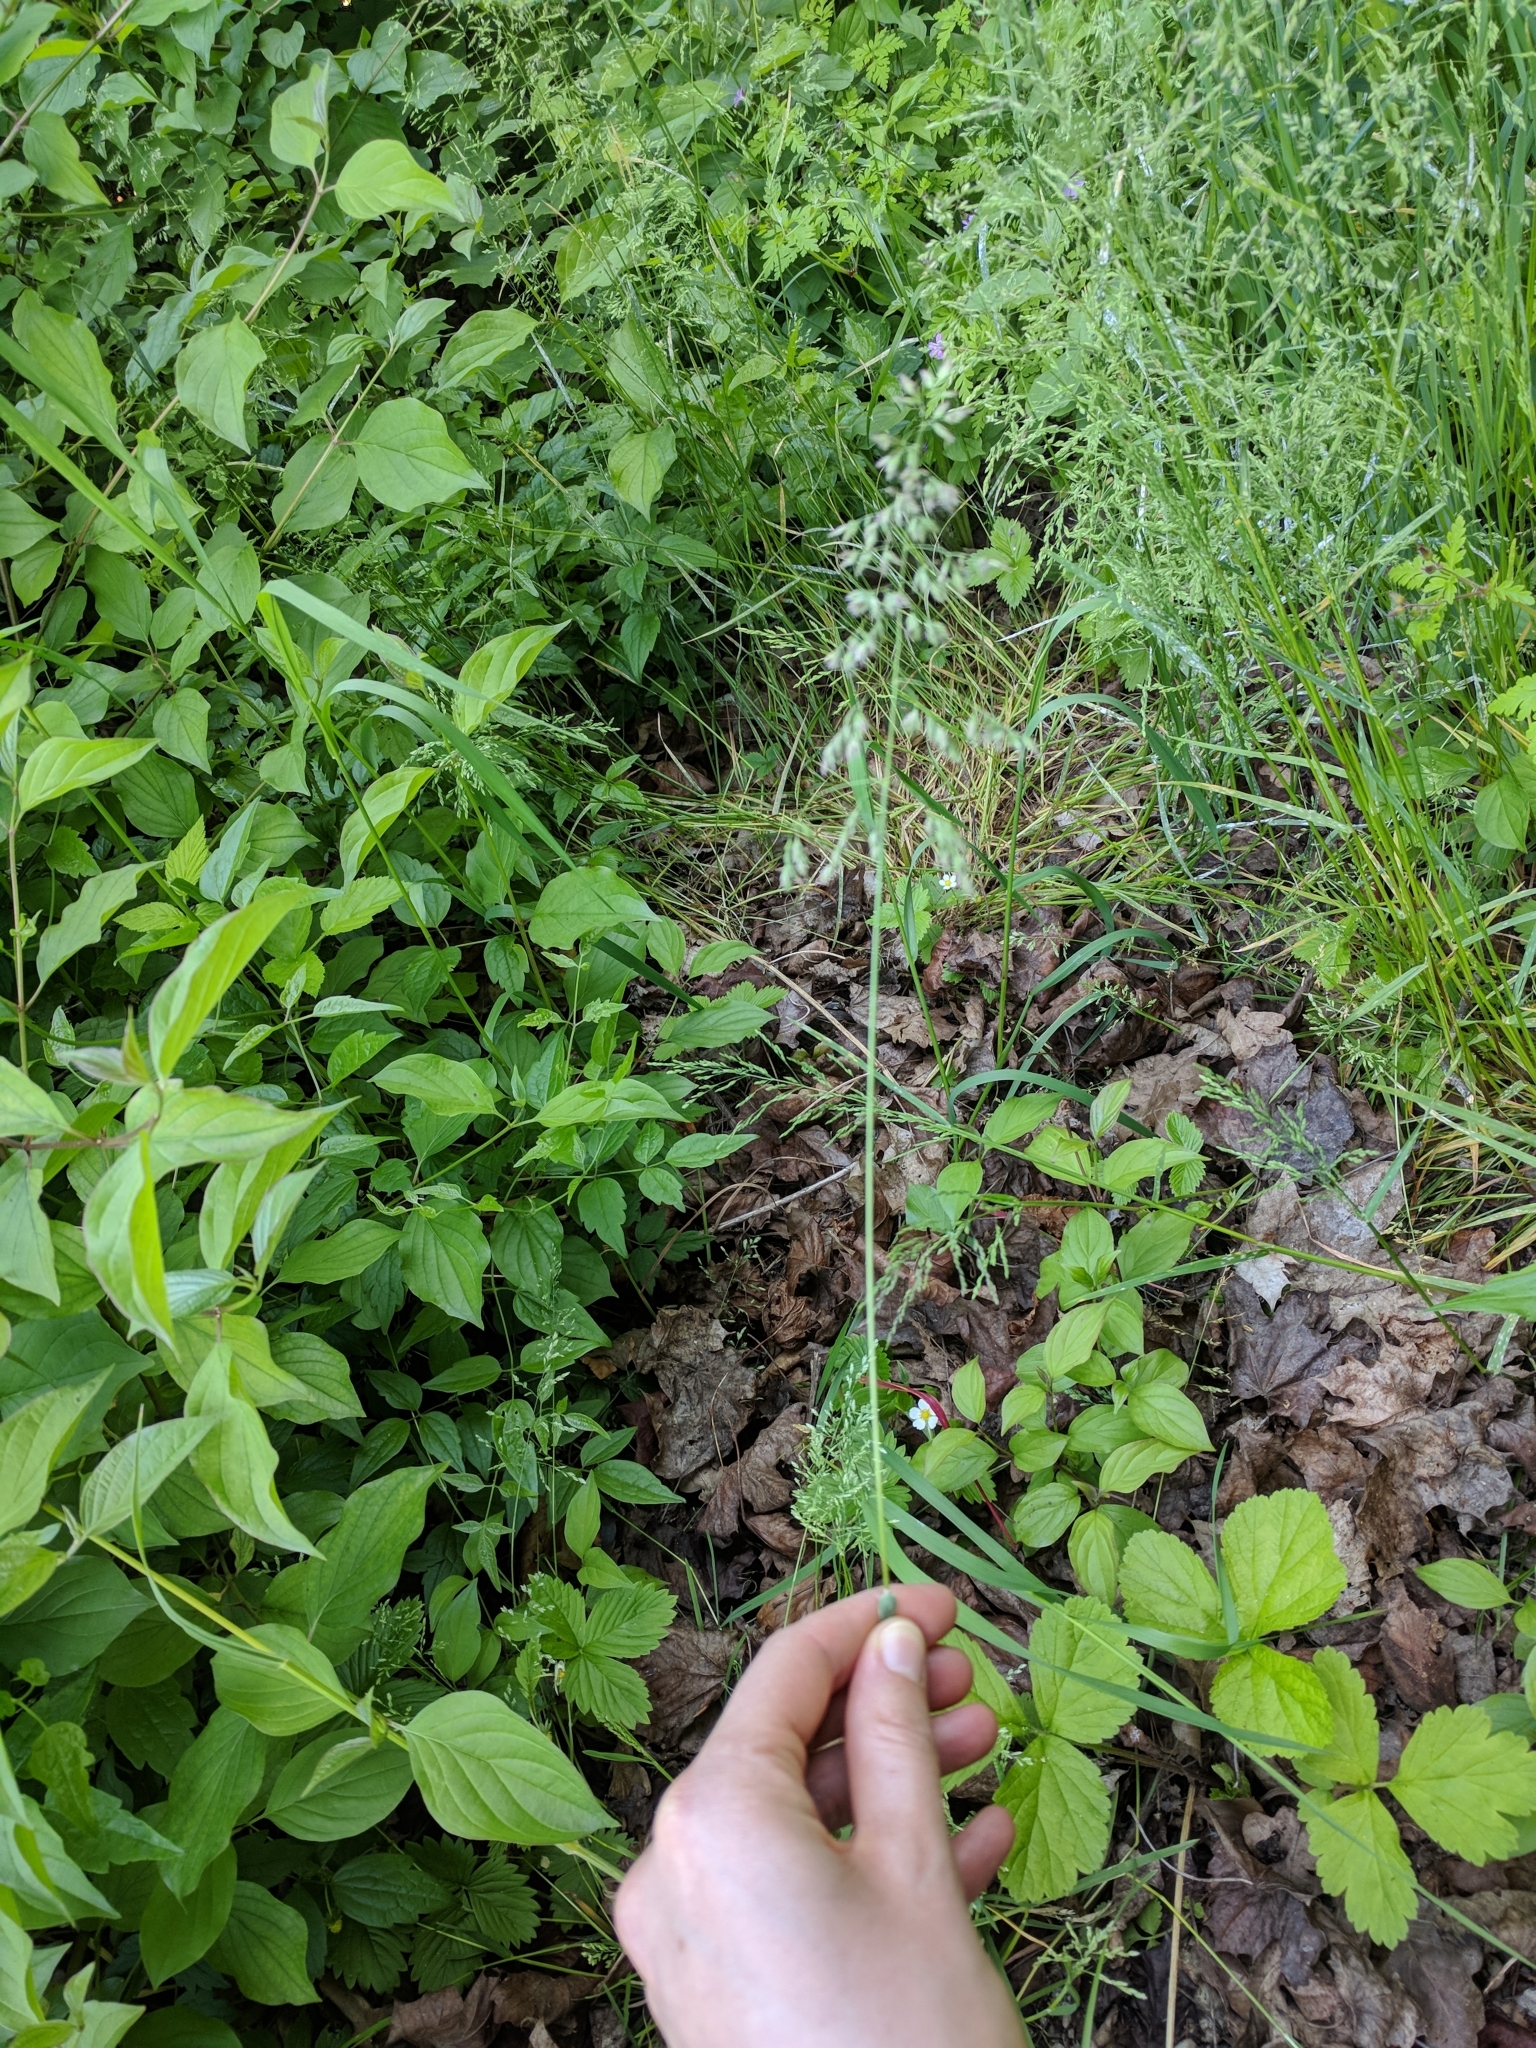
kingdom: Plantae
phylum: Tracheophyta
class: Liliopsida
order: Poales
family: Poaceae
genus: Poa
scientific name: Poa pratensis
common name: Kentucky bluegrass
